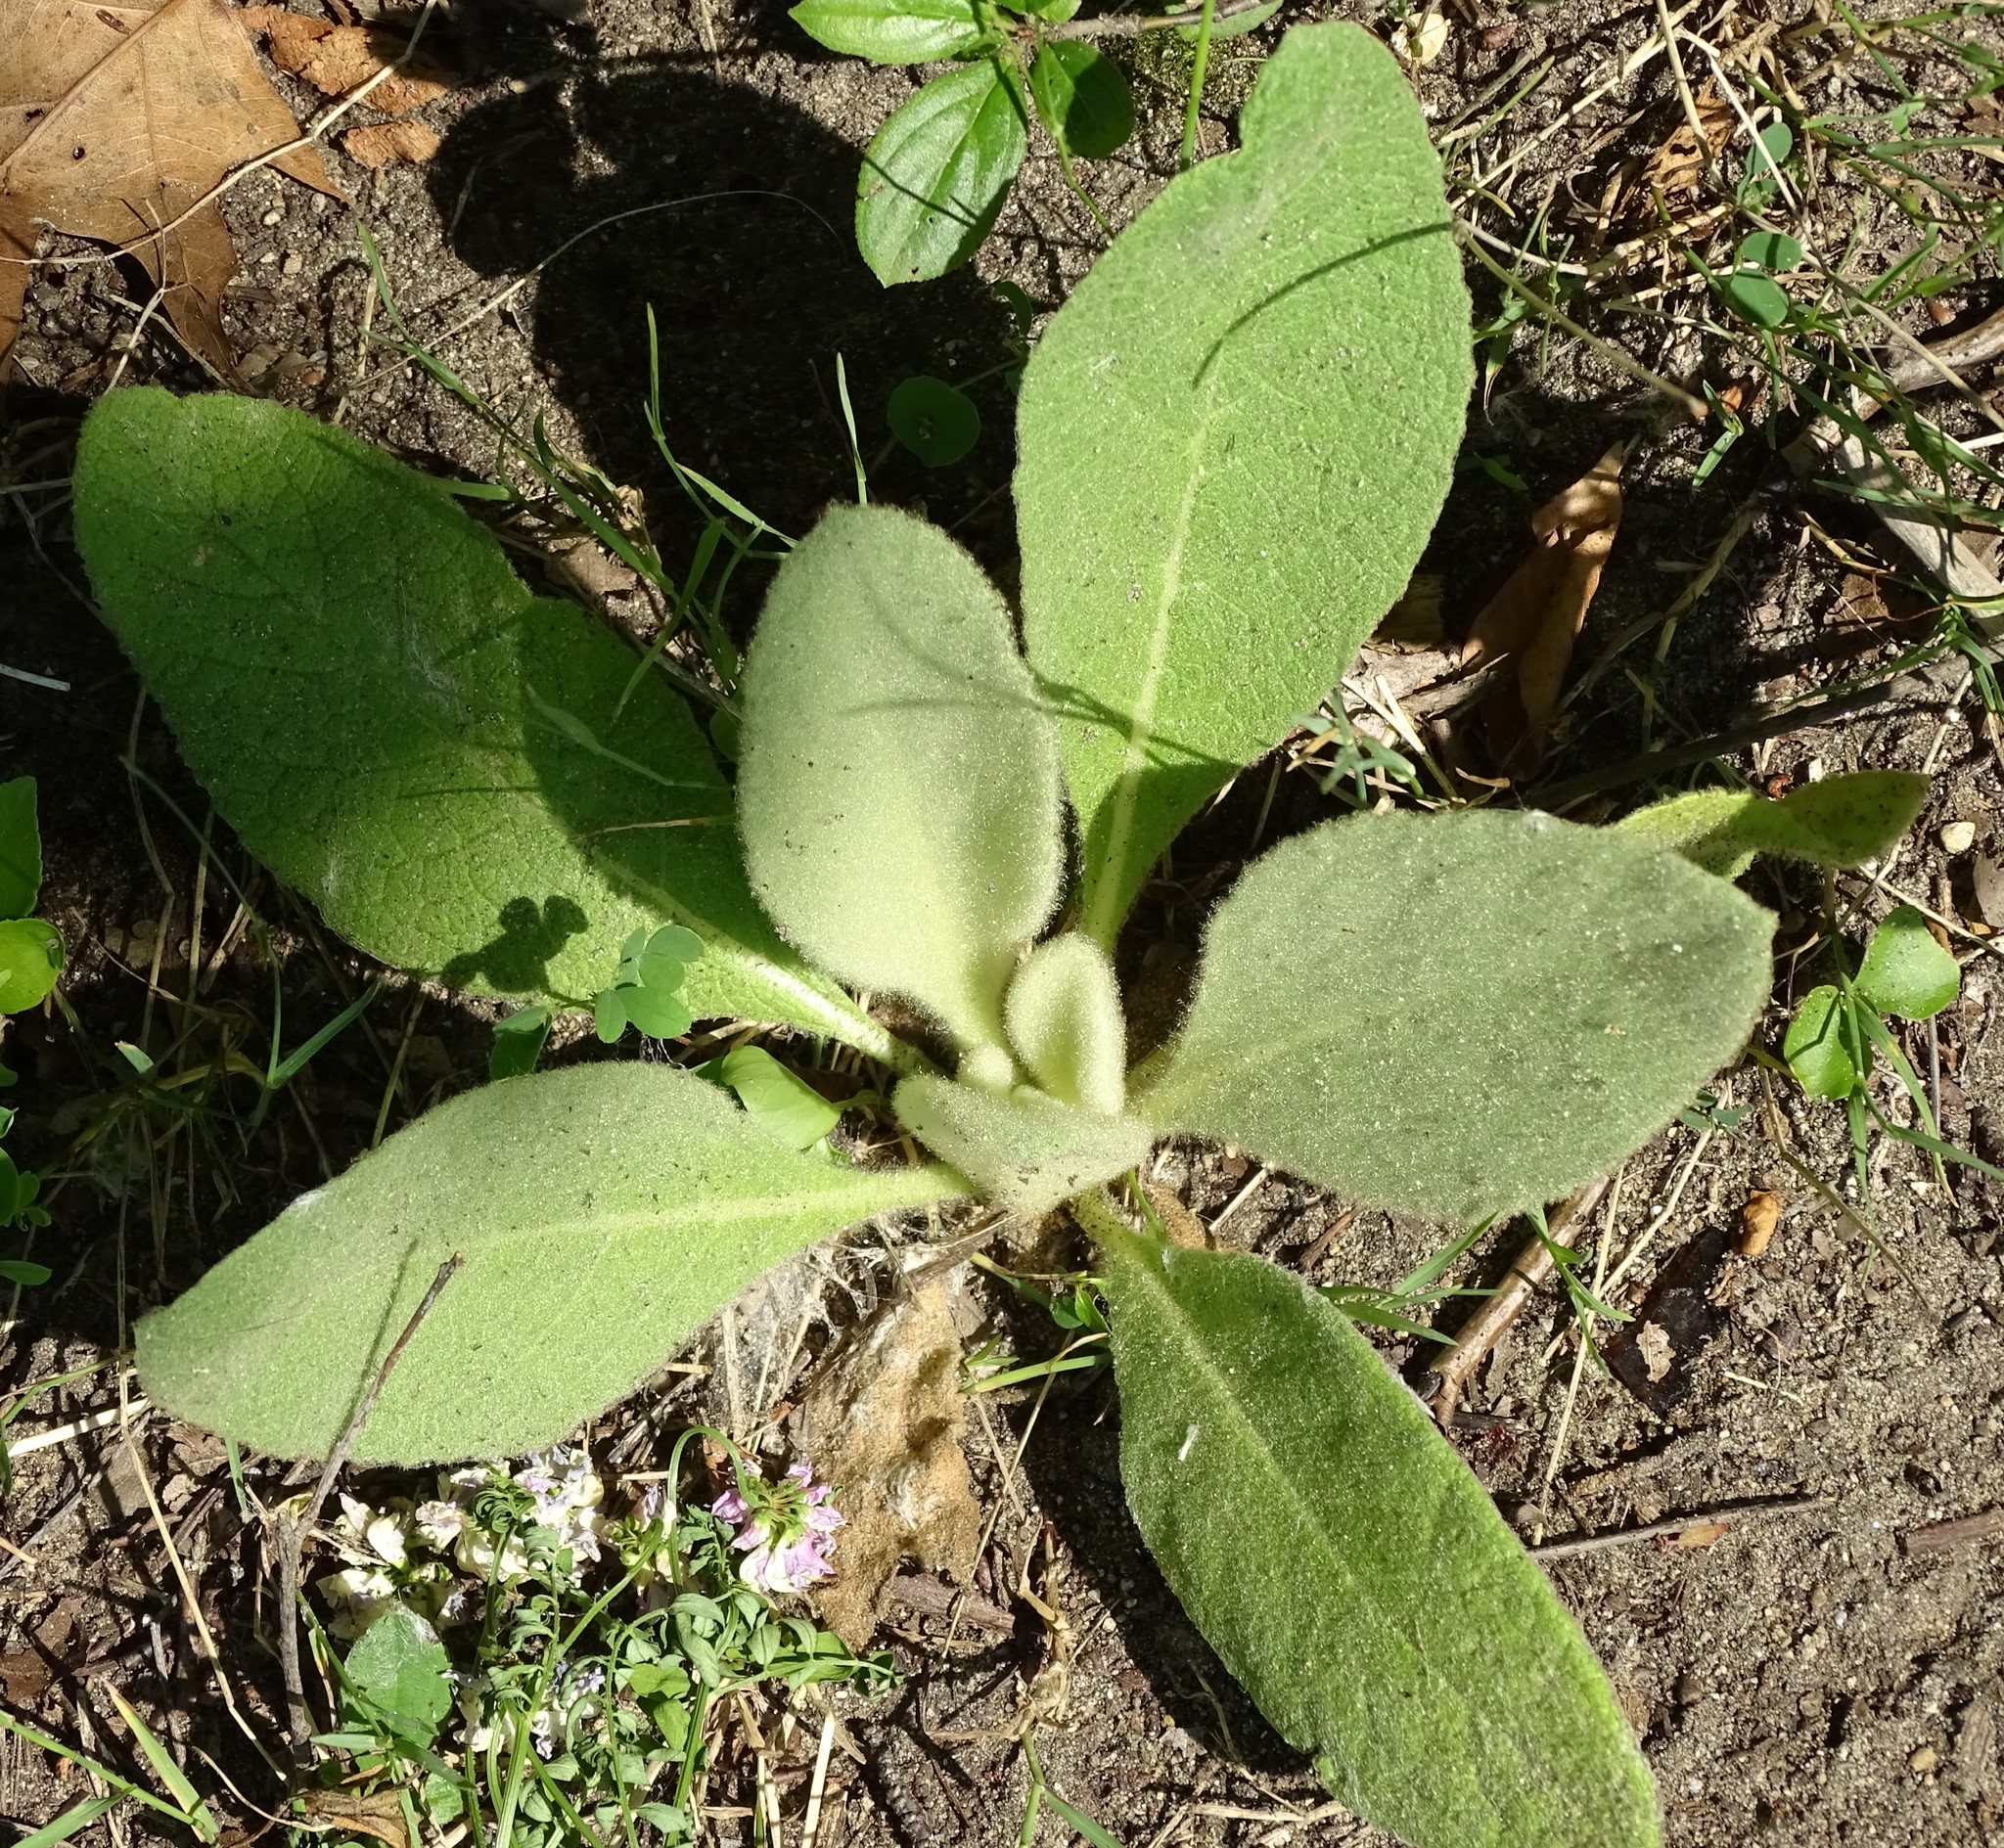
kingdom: Plantae
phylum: Tracheophyta
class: Magnoliopsida
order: Lamiales
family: Scrophulariaceae
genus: Verbascum
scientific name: Verbascum thapsus
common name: Common mullein
